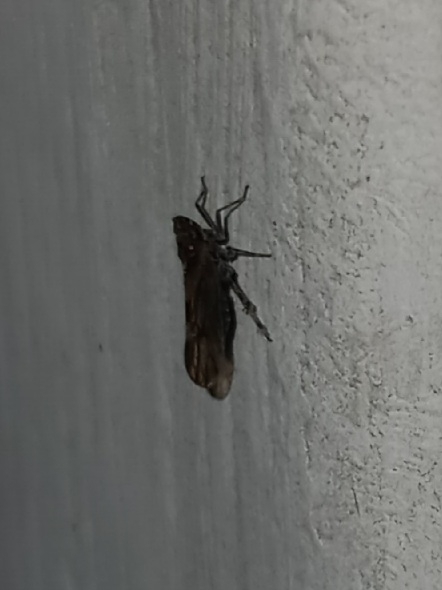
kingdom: Animalia
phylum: Arthropoda
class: Insecta
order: Hemiptera
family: Delphacidae
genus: Megamelus
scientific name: Megamelus palaetus
